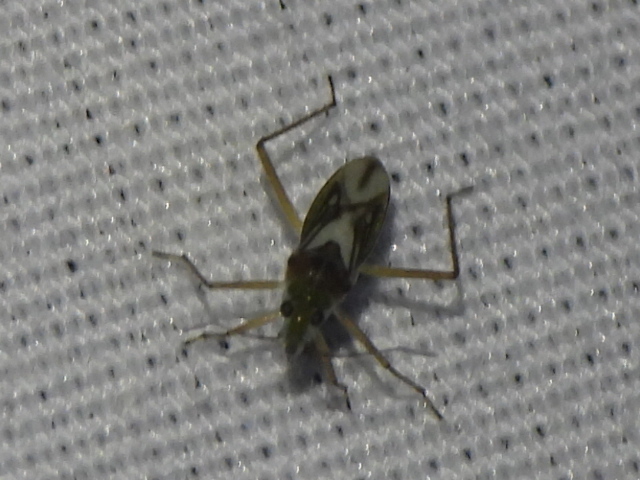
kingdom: Animalia
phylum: Arthropoda
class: Insecta
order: Hemiptera
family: Mesoveliidae
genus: Mesovelia
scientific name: Mesovelia mulsanti
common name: Water treaders
